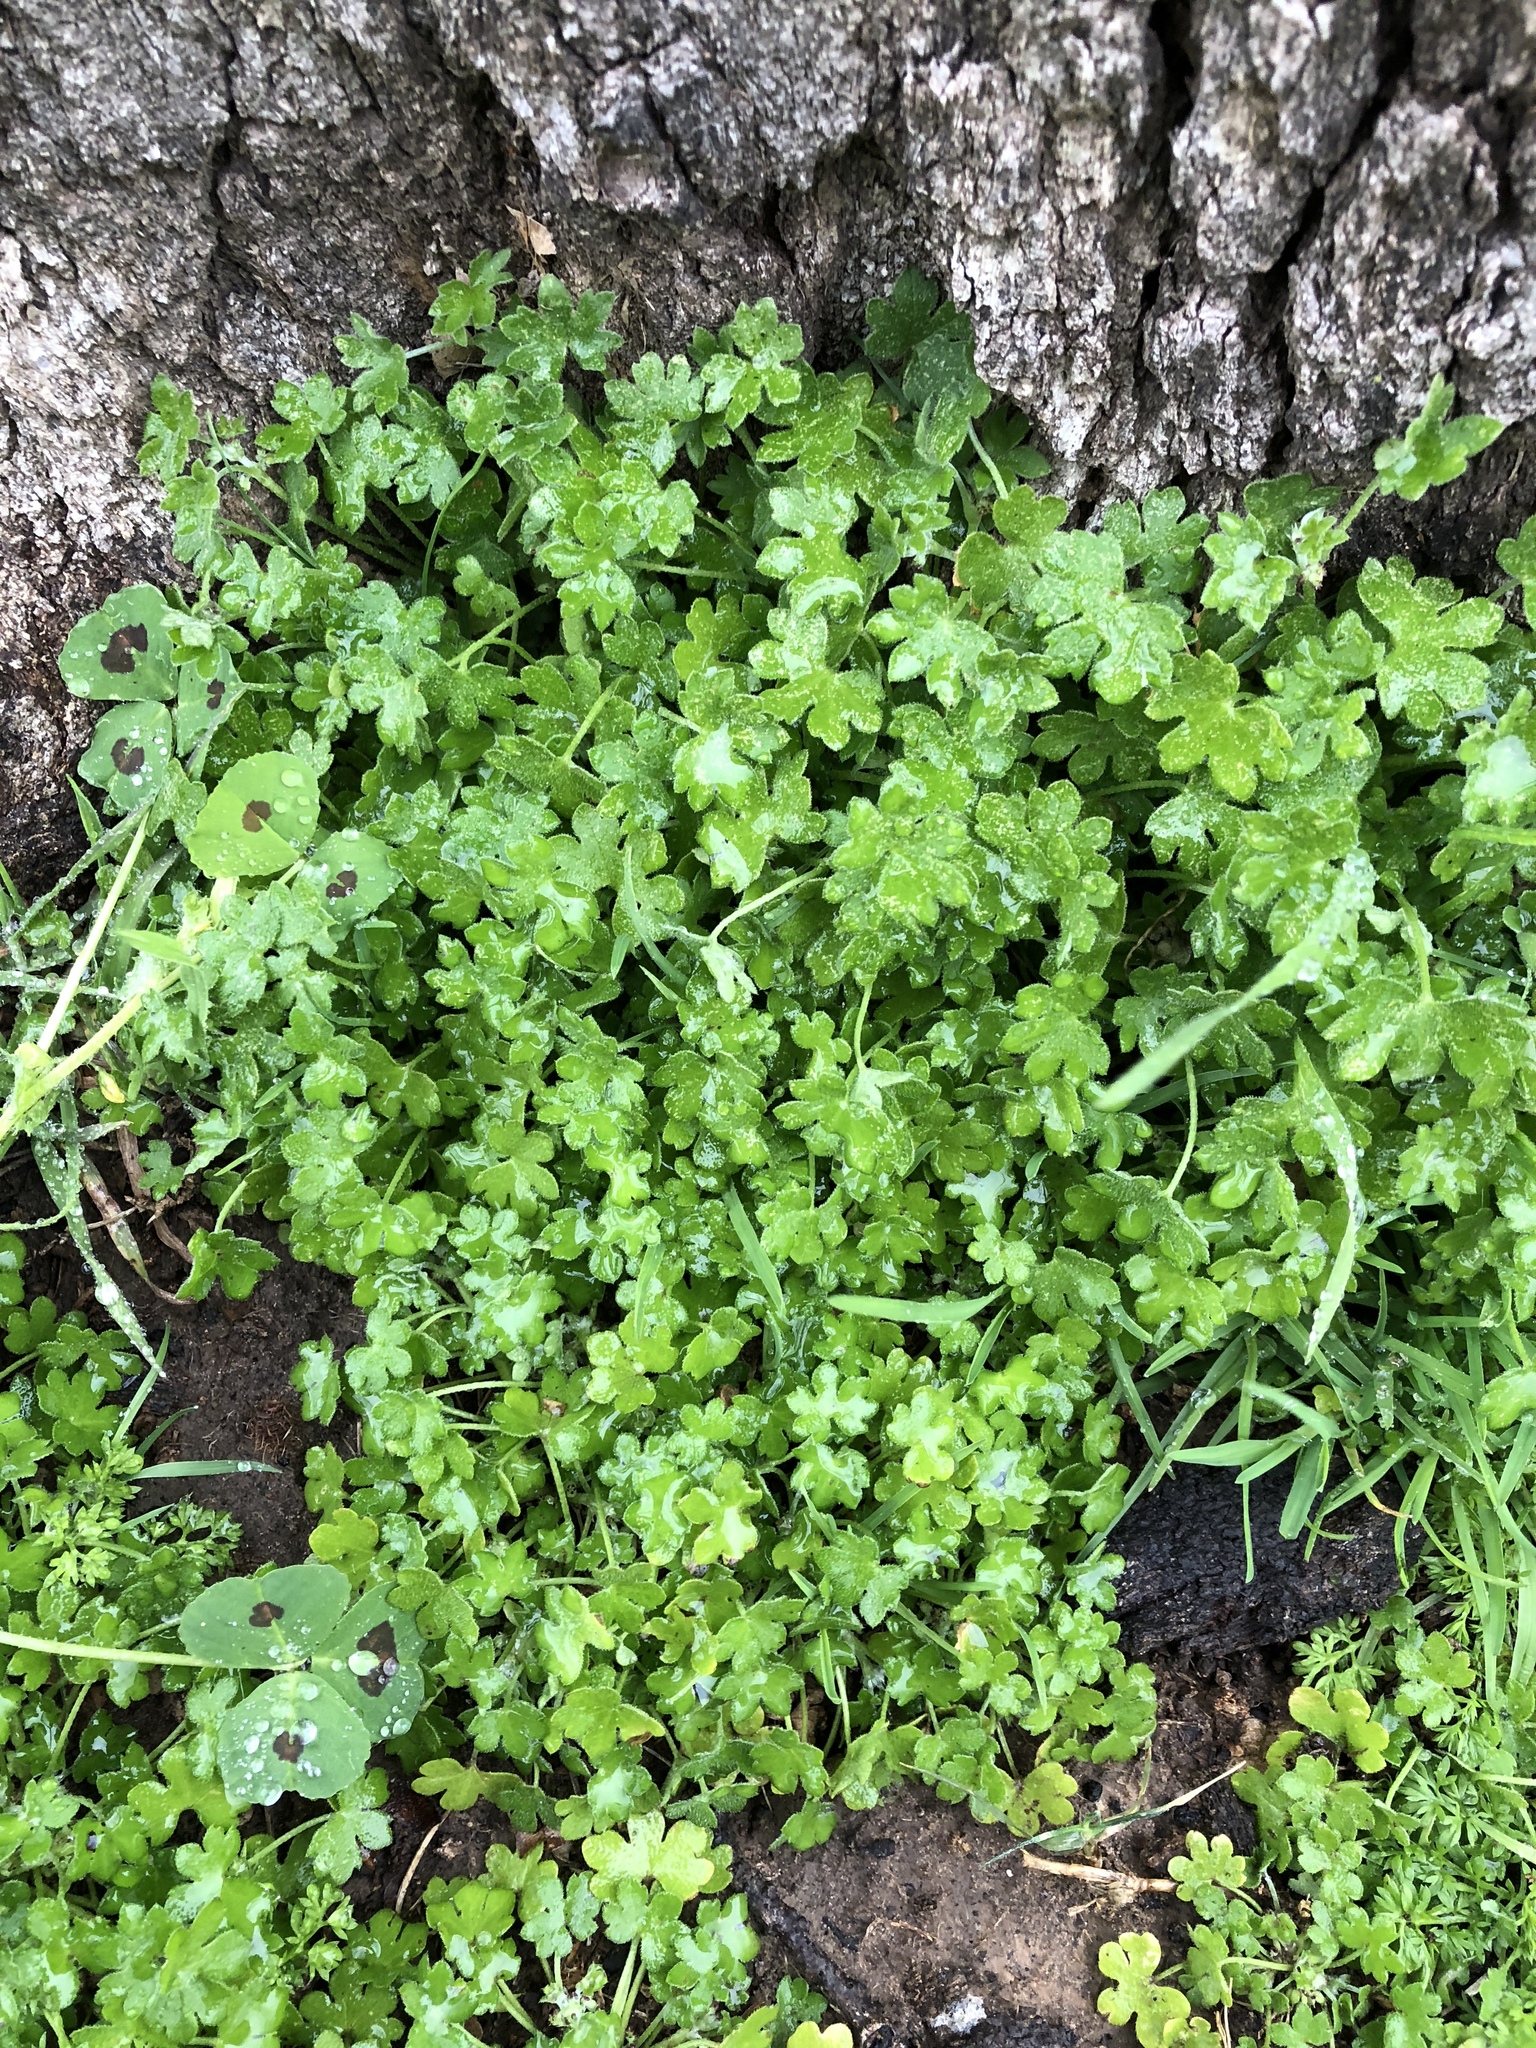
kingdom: Plantae
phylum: Tracheophyta
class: Magnoliopsida
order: Apiales
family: Apiaceae
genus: Bowlesia
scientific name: Bowlesia incana
